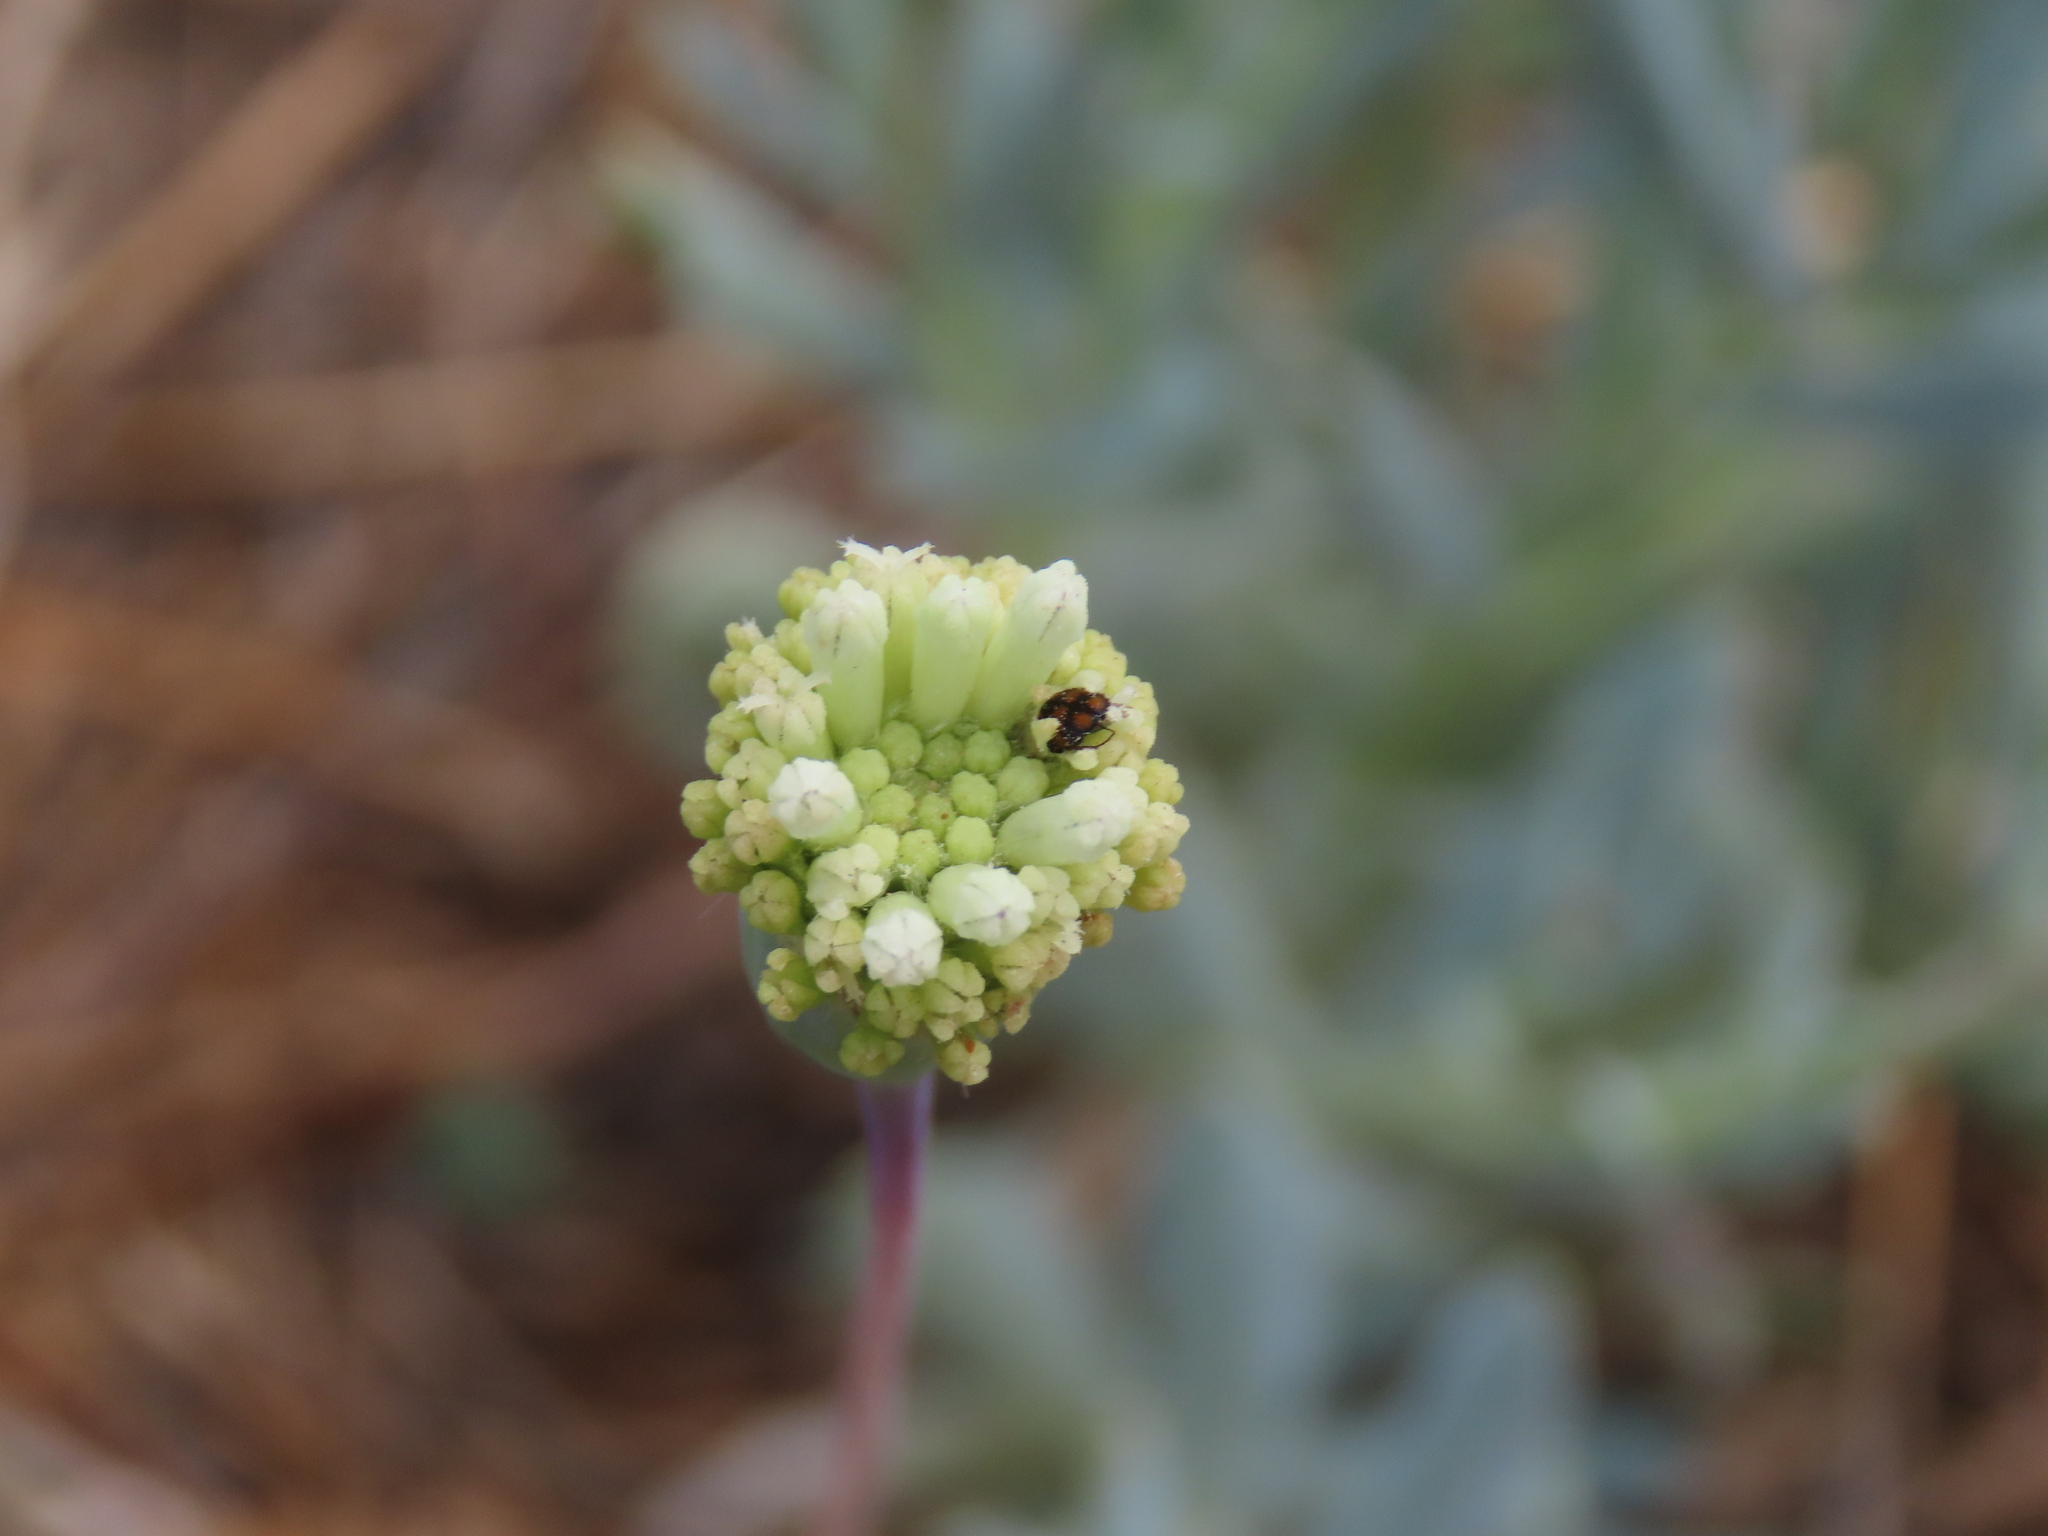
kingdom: Plantae
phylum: Tracheophyta
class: Magnoliopsida
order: Asterales
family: Asteraceae
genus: Emilia
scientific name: Emilia marlothiana
